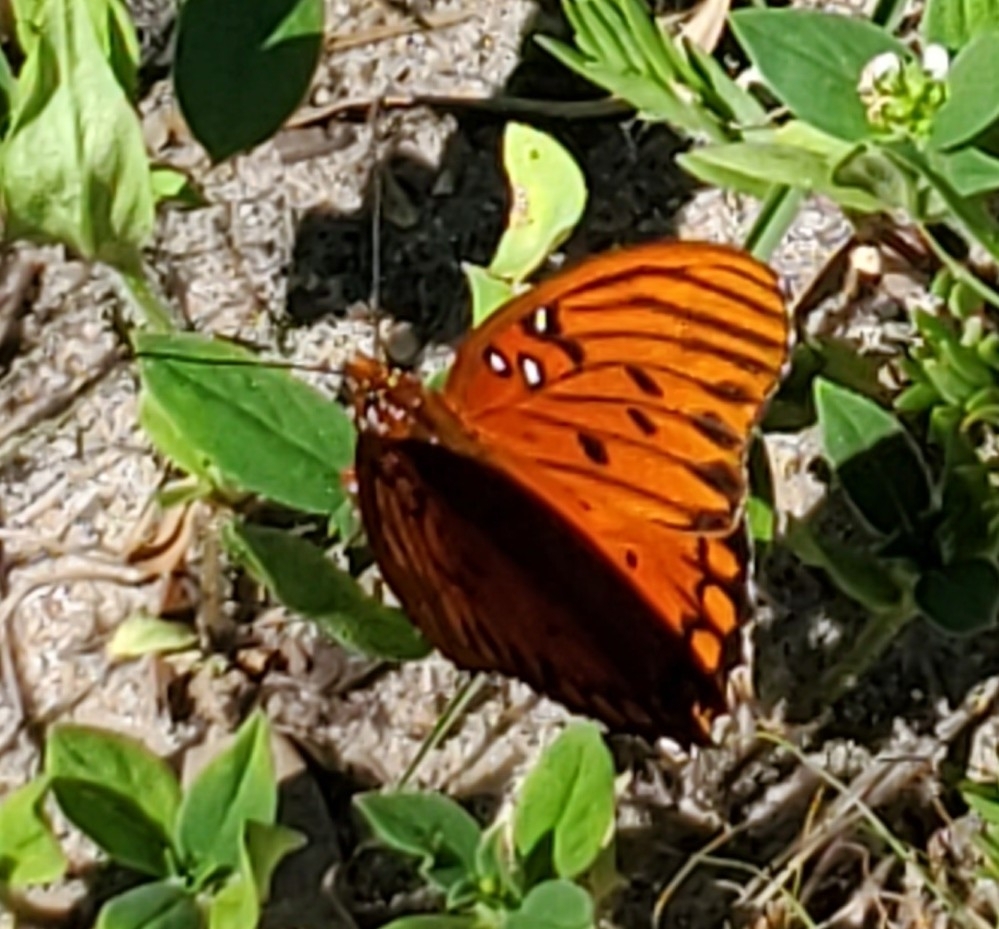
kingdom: Animalia
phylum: Arthropoda
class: Insecta
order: Lepidoptera
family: Nymphalidae
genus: Dione
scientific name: Dione vanillae
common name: Gulf fritillary
